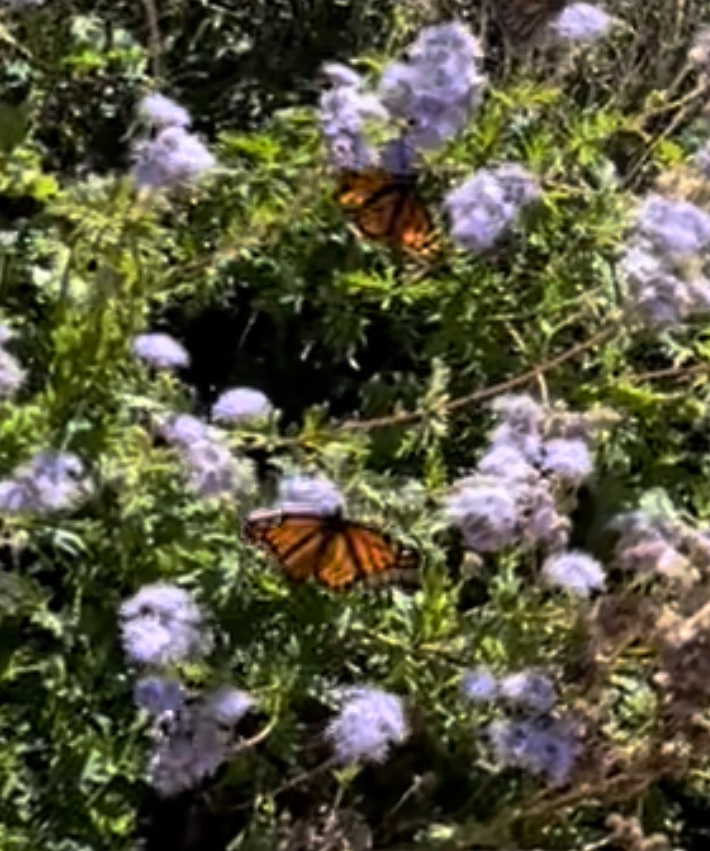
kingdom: Animalia
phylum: Arthropoda
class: Insecta
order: Lepidoptera
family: Nymphalidae
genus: Danaus
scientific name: Danaus plexippus
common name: Monarch
